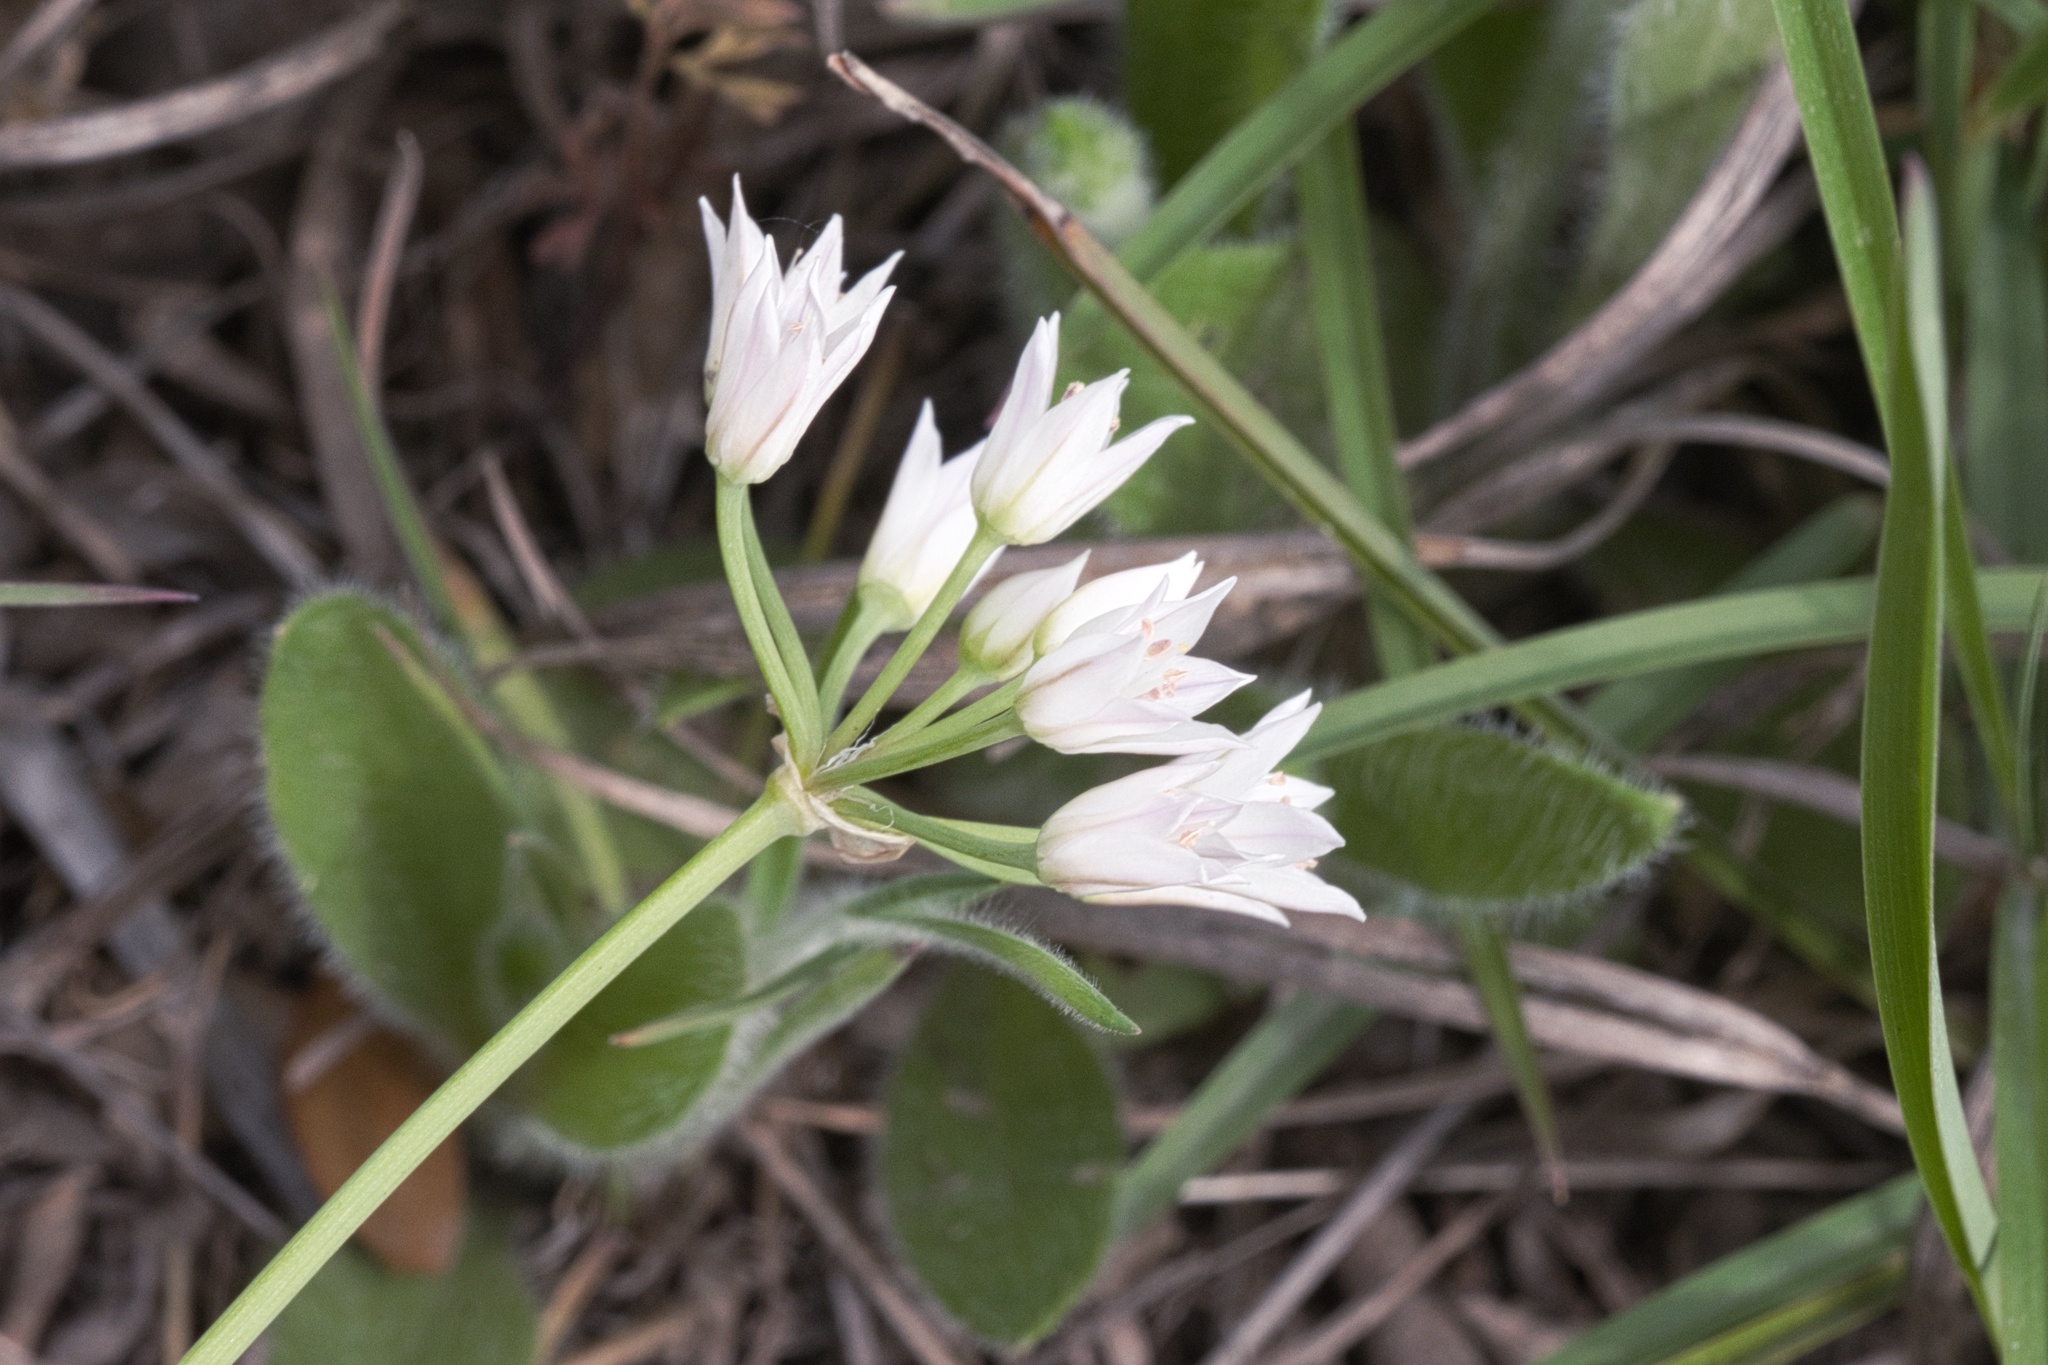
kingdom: Plantae
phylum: Tracheophyta
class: Liliopsida
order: Asparagales
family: Amaryllidaceae
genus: Allium
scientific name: Allium drummondii
